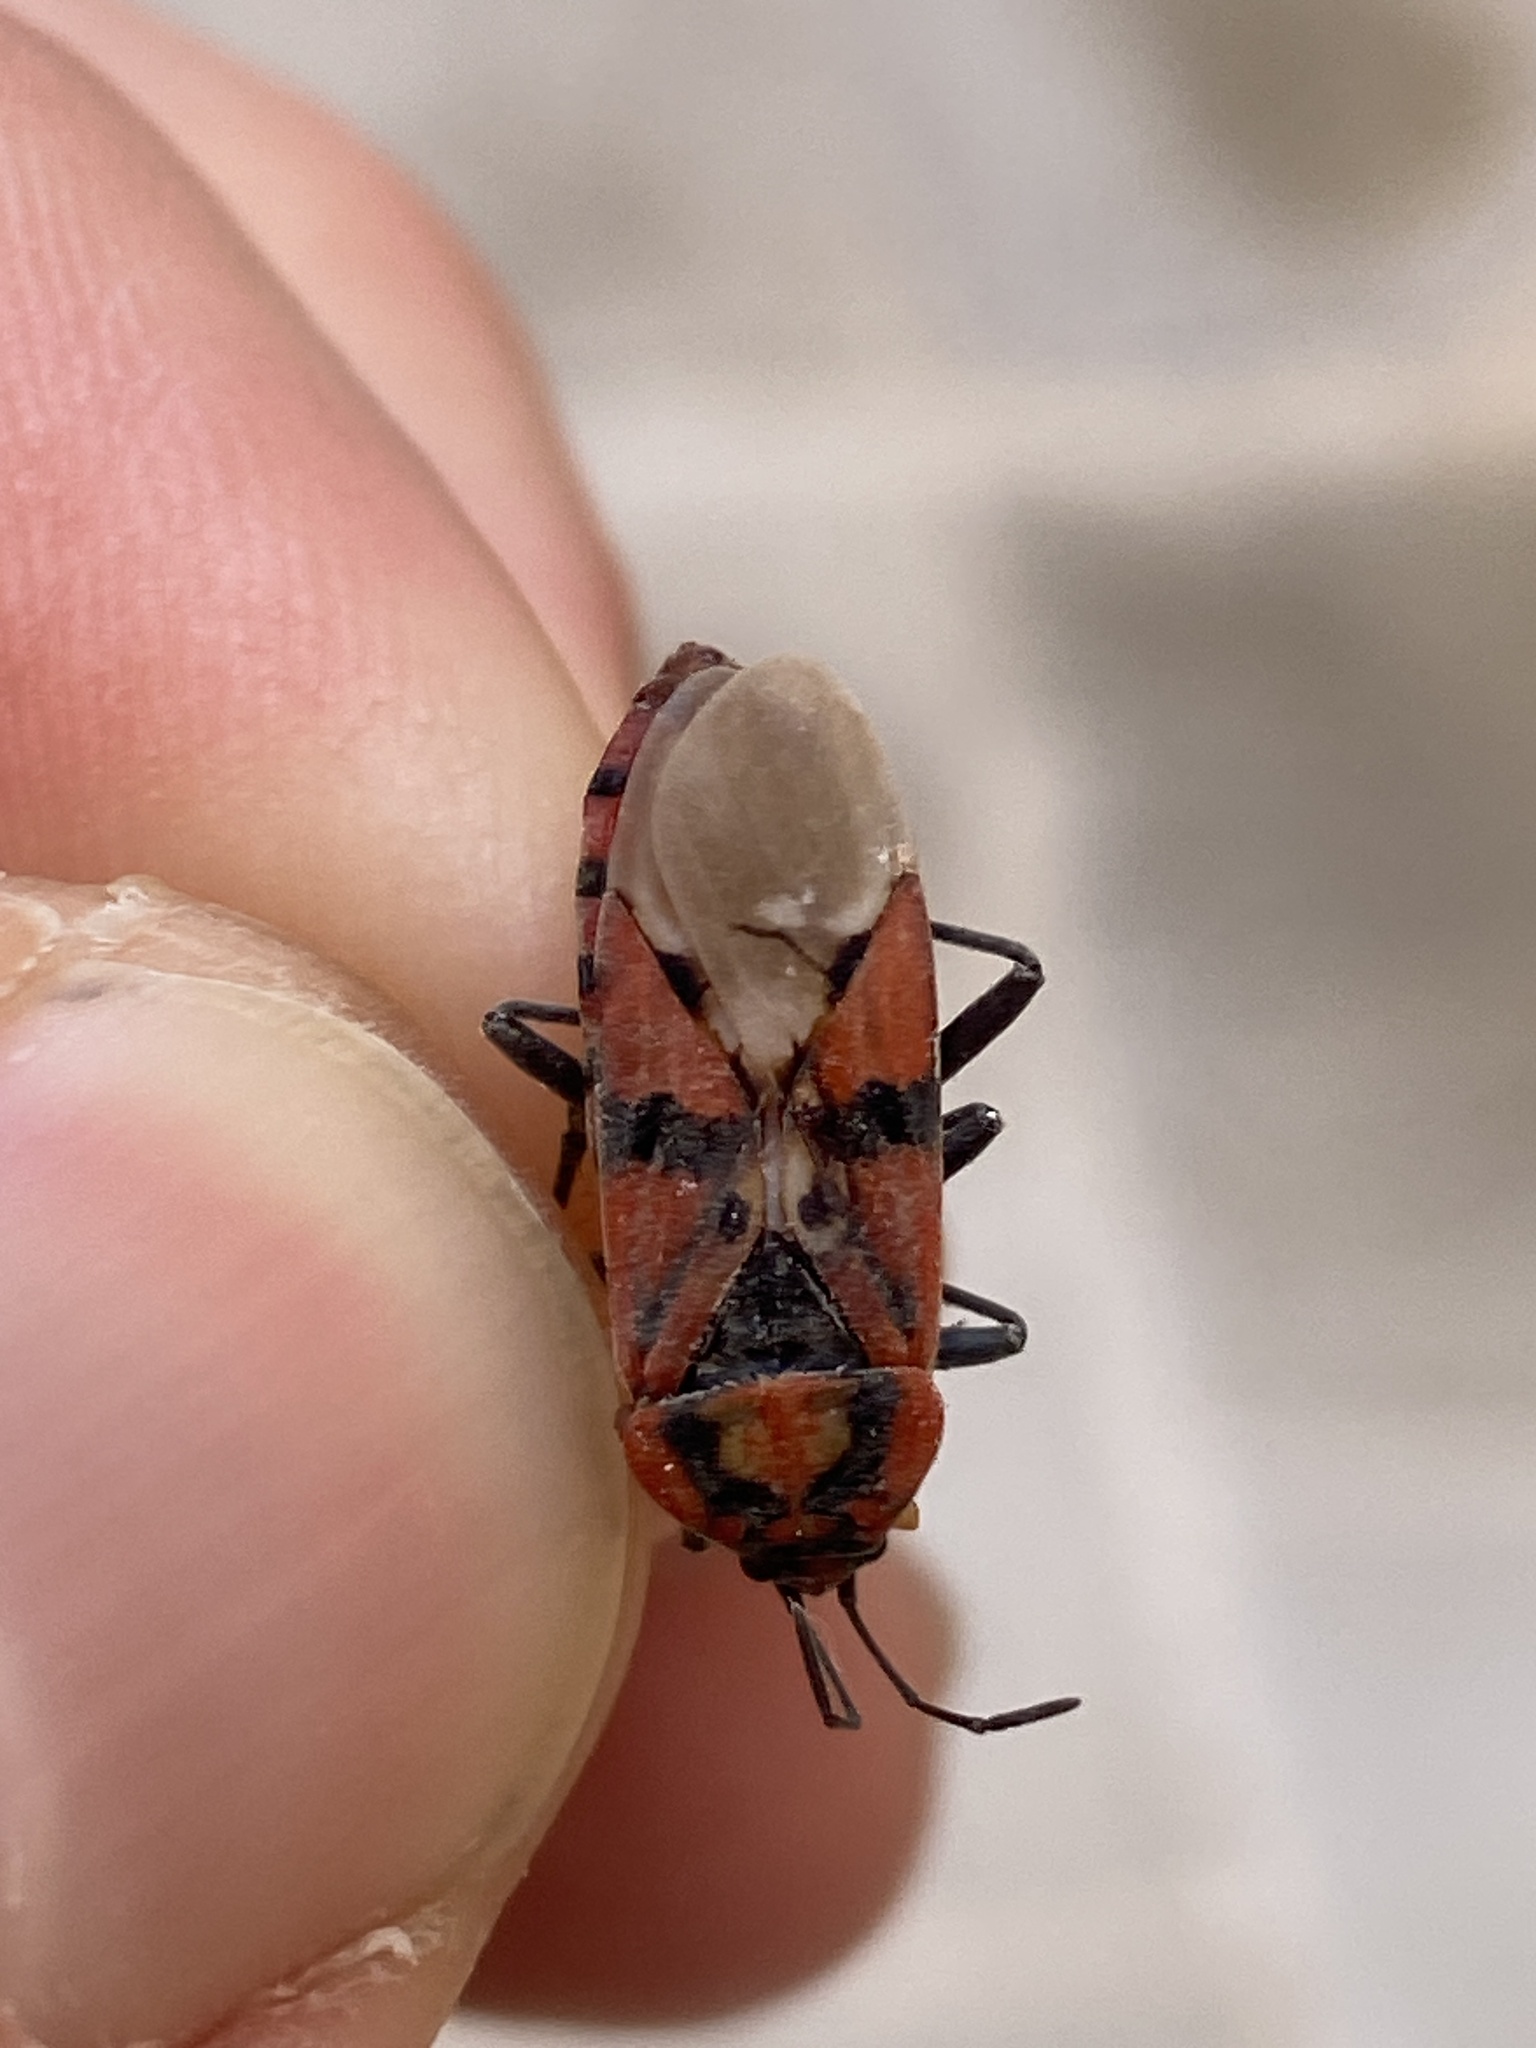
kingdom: Animalia
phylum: Arthropoda
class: Insecta
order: Hemiptera
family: Lygaeidae
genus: Spilostethus
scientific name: Spilostethus pandurus
